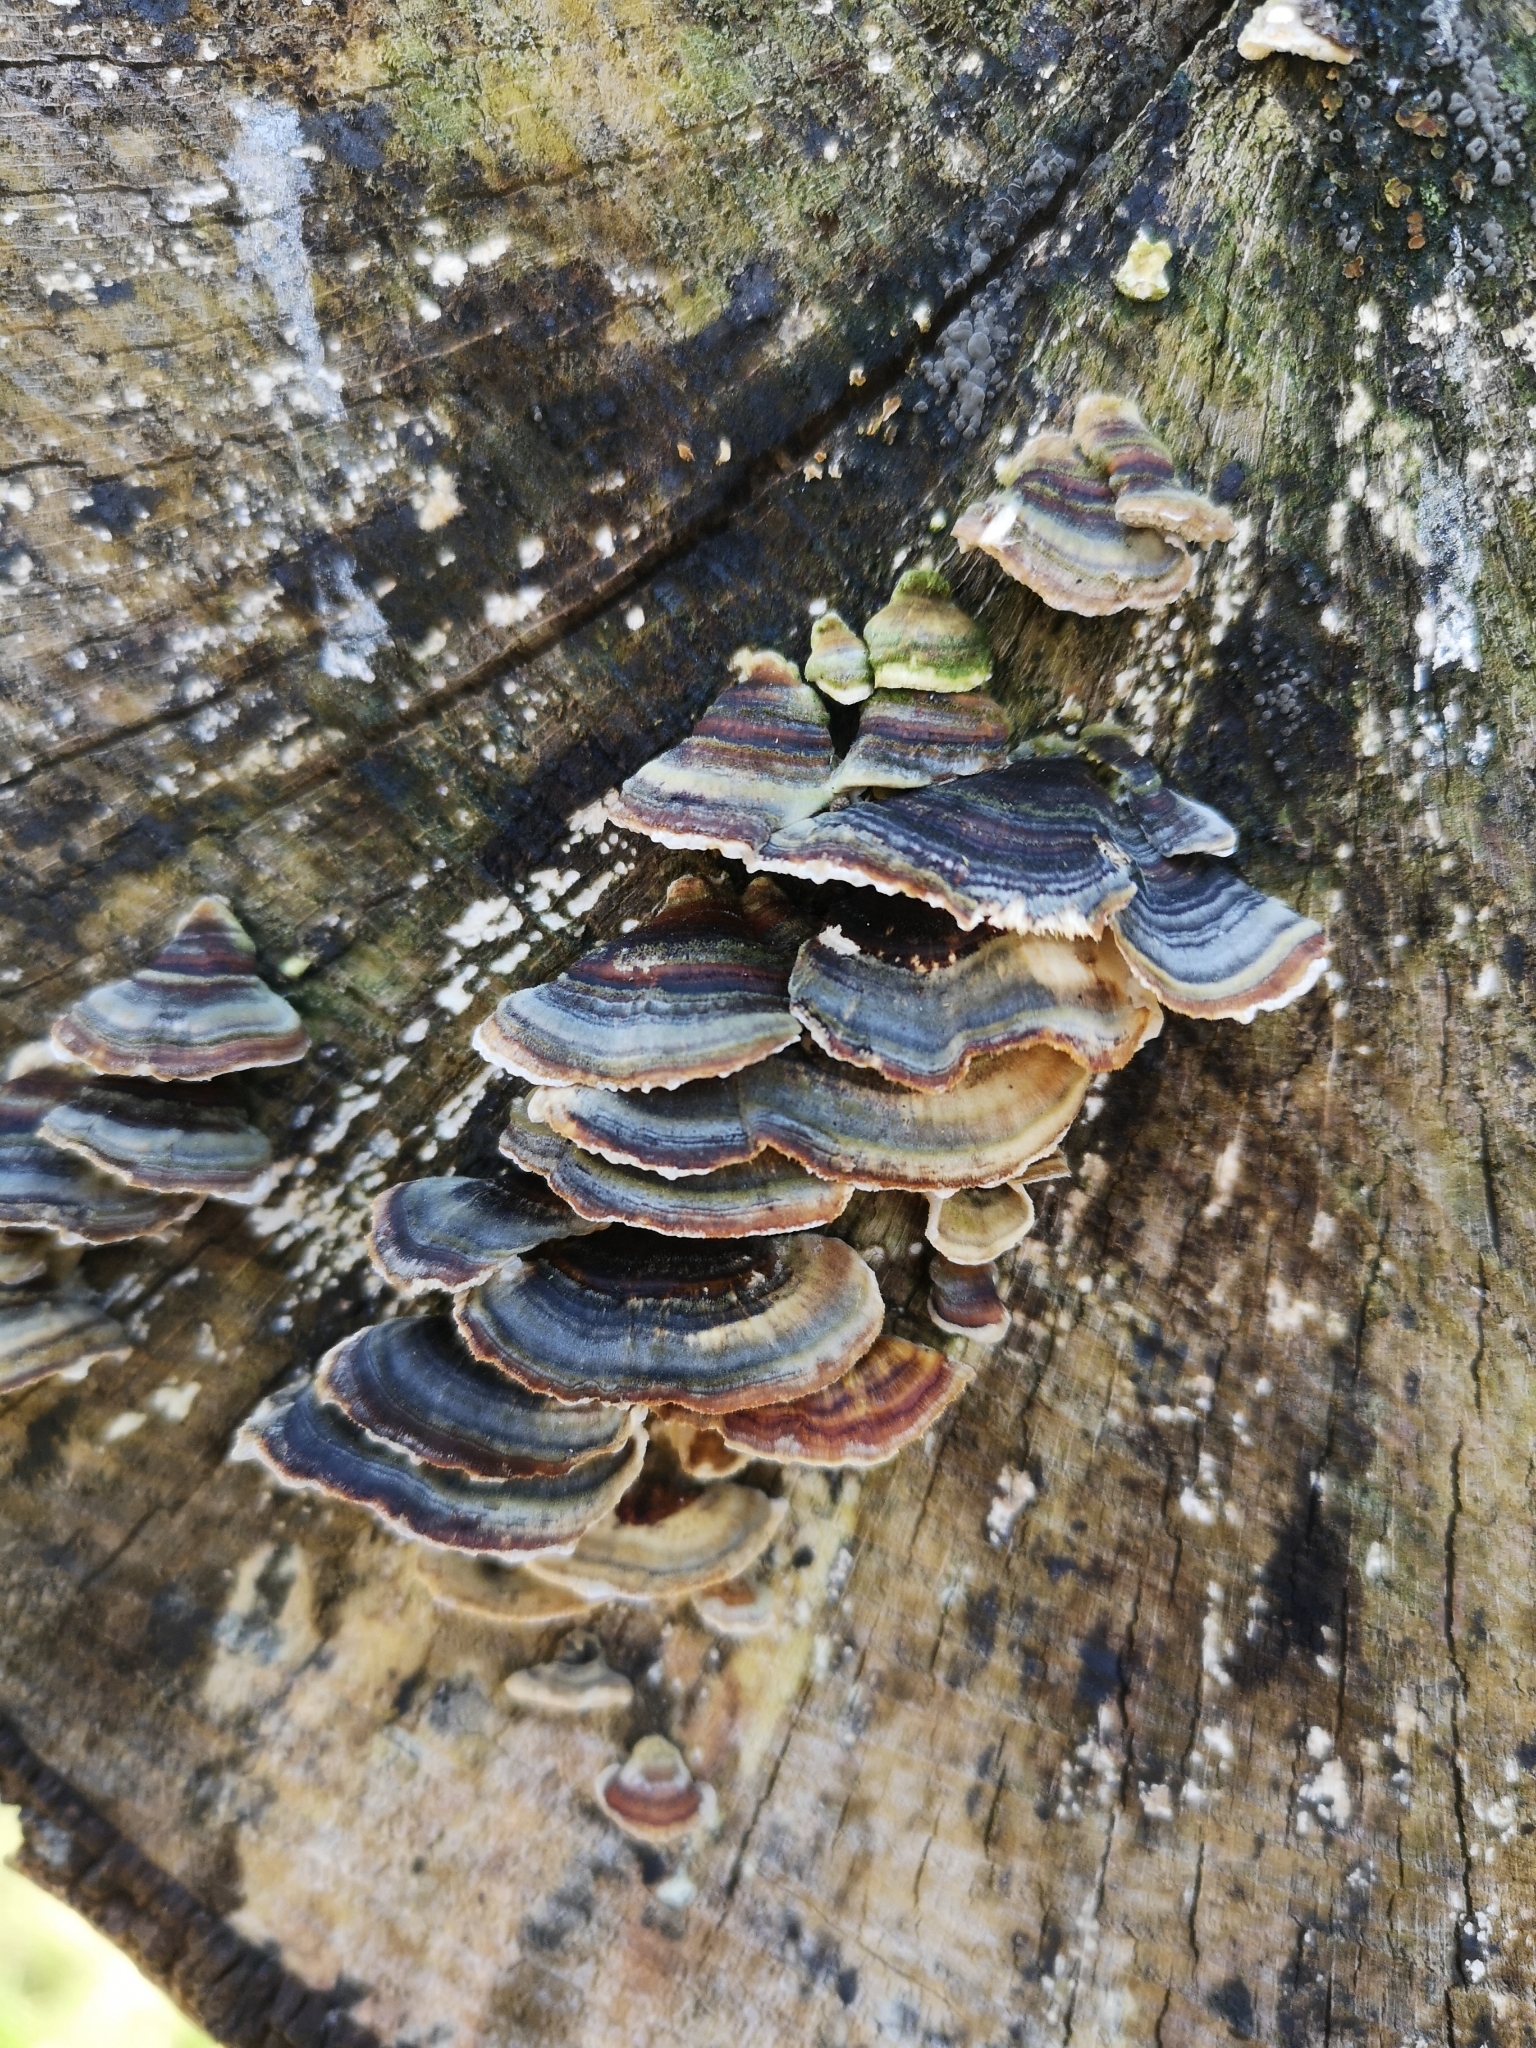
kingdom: Fungi
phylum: Basidiomycota
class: Agaricomycetes
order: Polyporales
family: Polyporaceae
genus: Trametes
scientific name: Trametes versicolor
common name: Turkeytail
